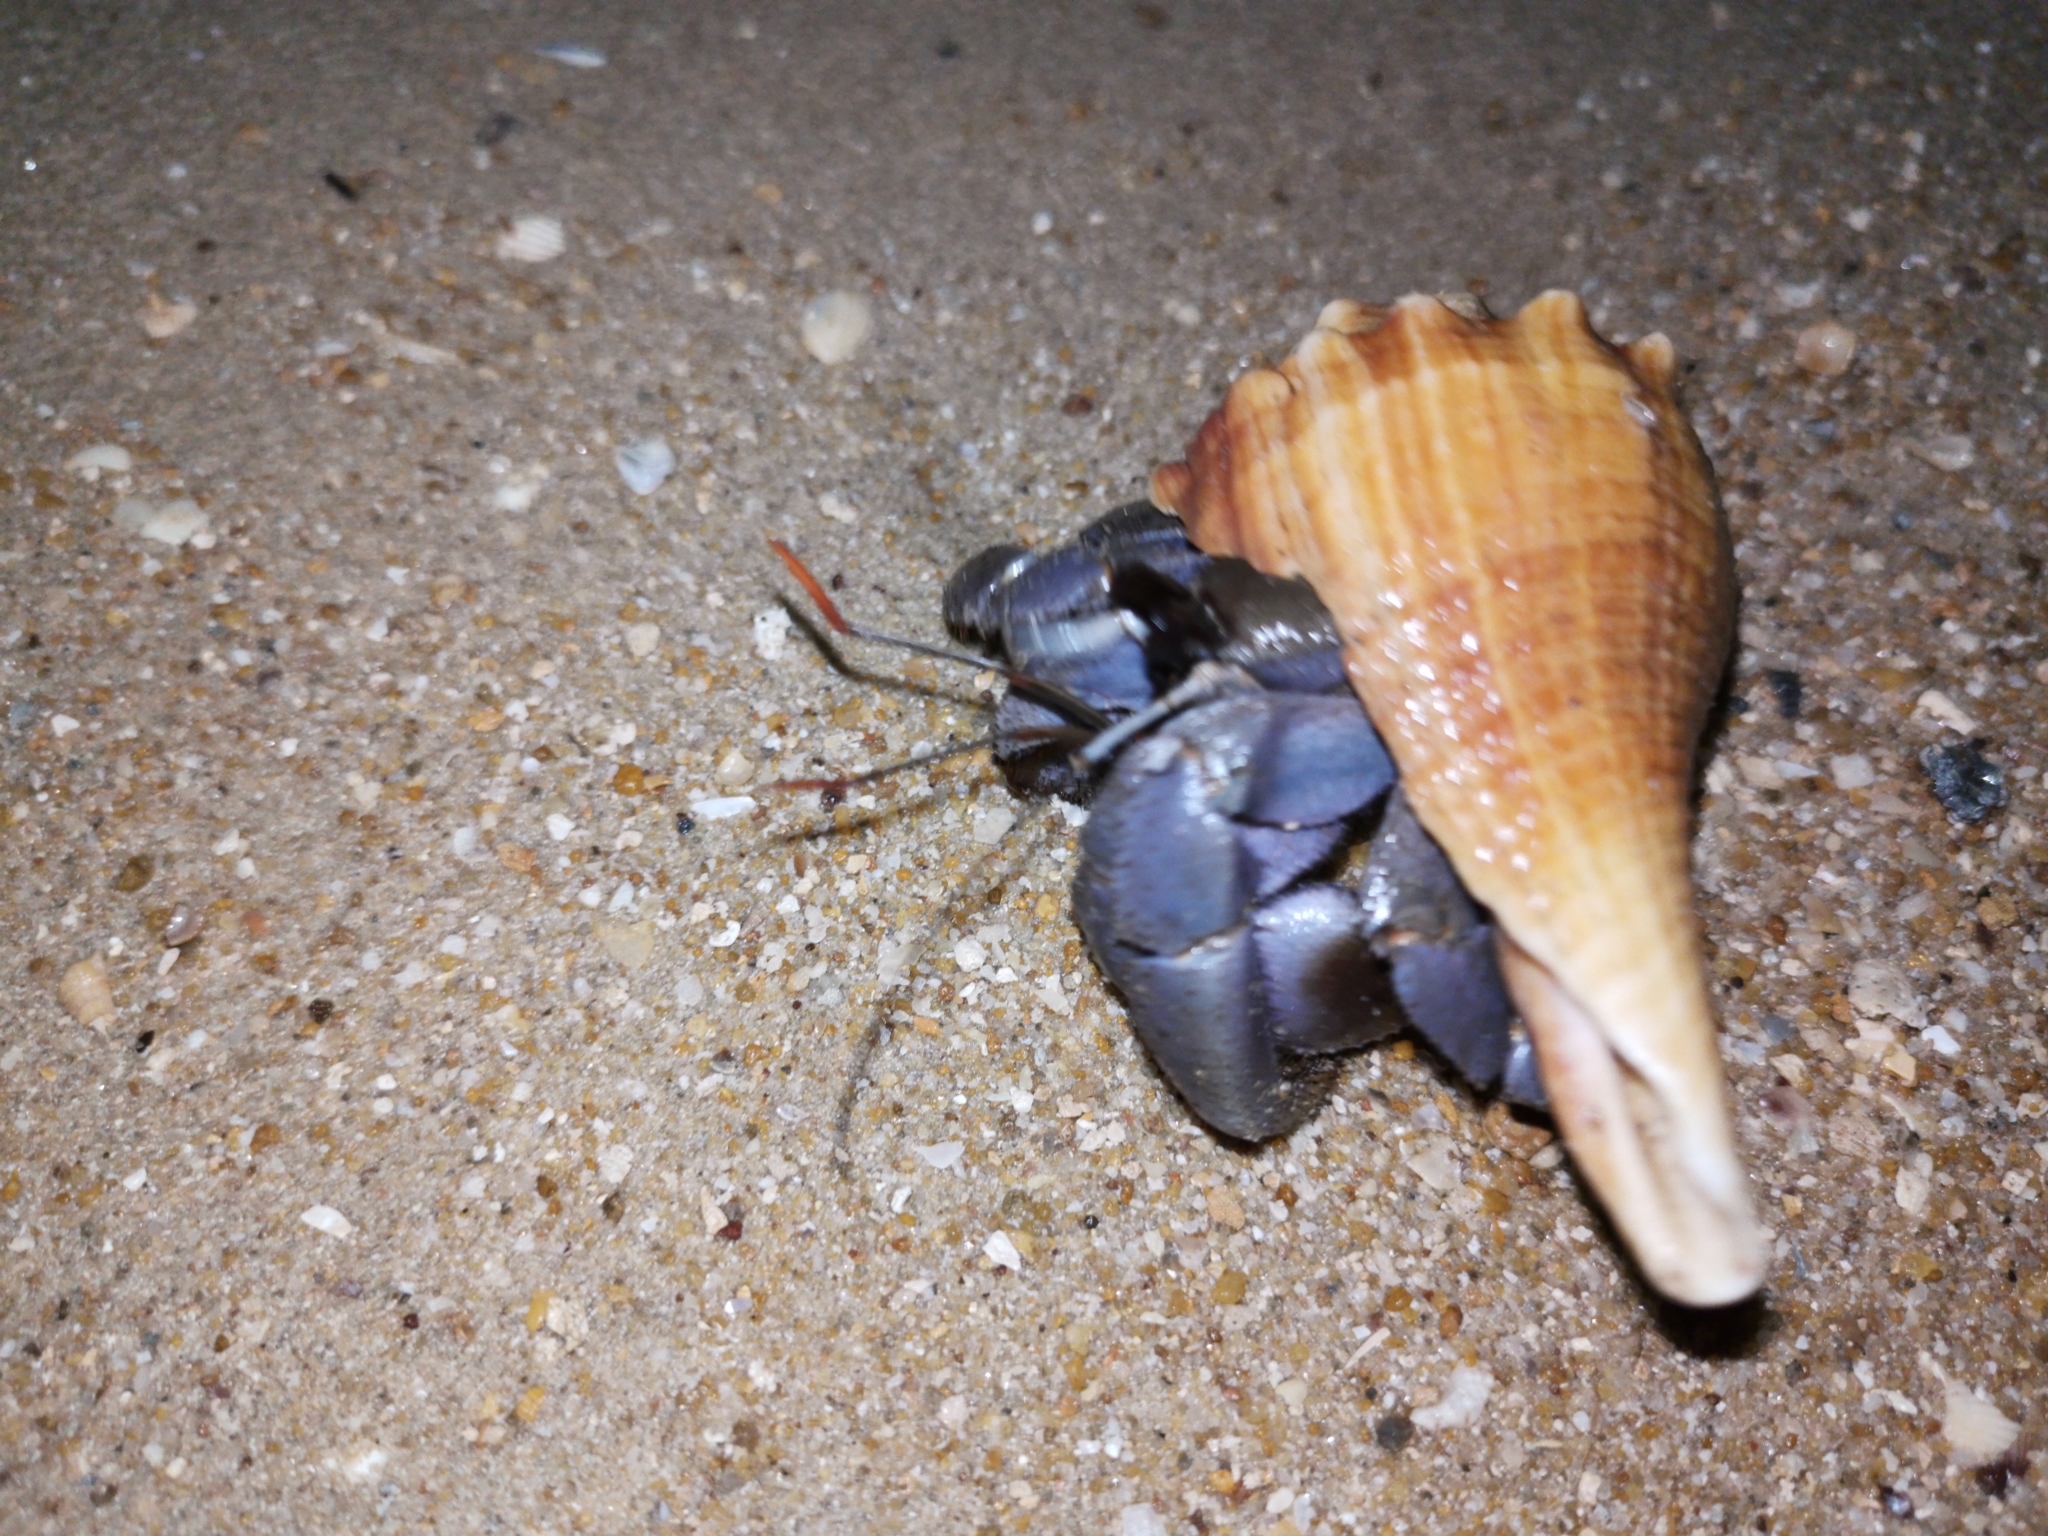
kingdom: Animalia
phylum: Arthropoda
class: Malacostraca
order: Decapoda
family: Coenobitidae
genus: Coenobita
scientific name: Coenobita violascens
